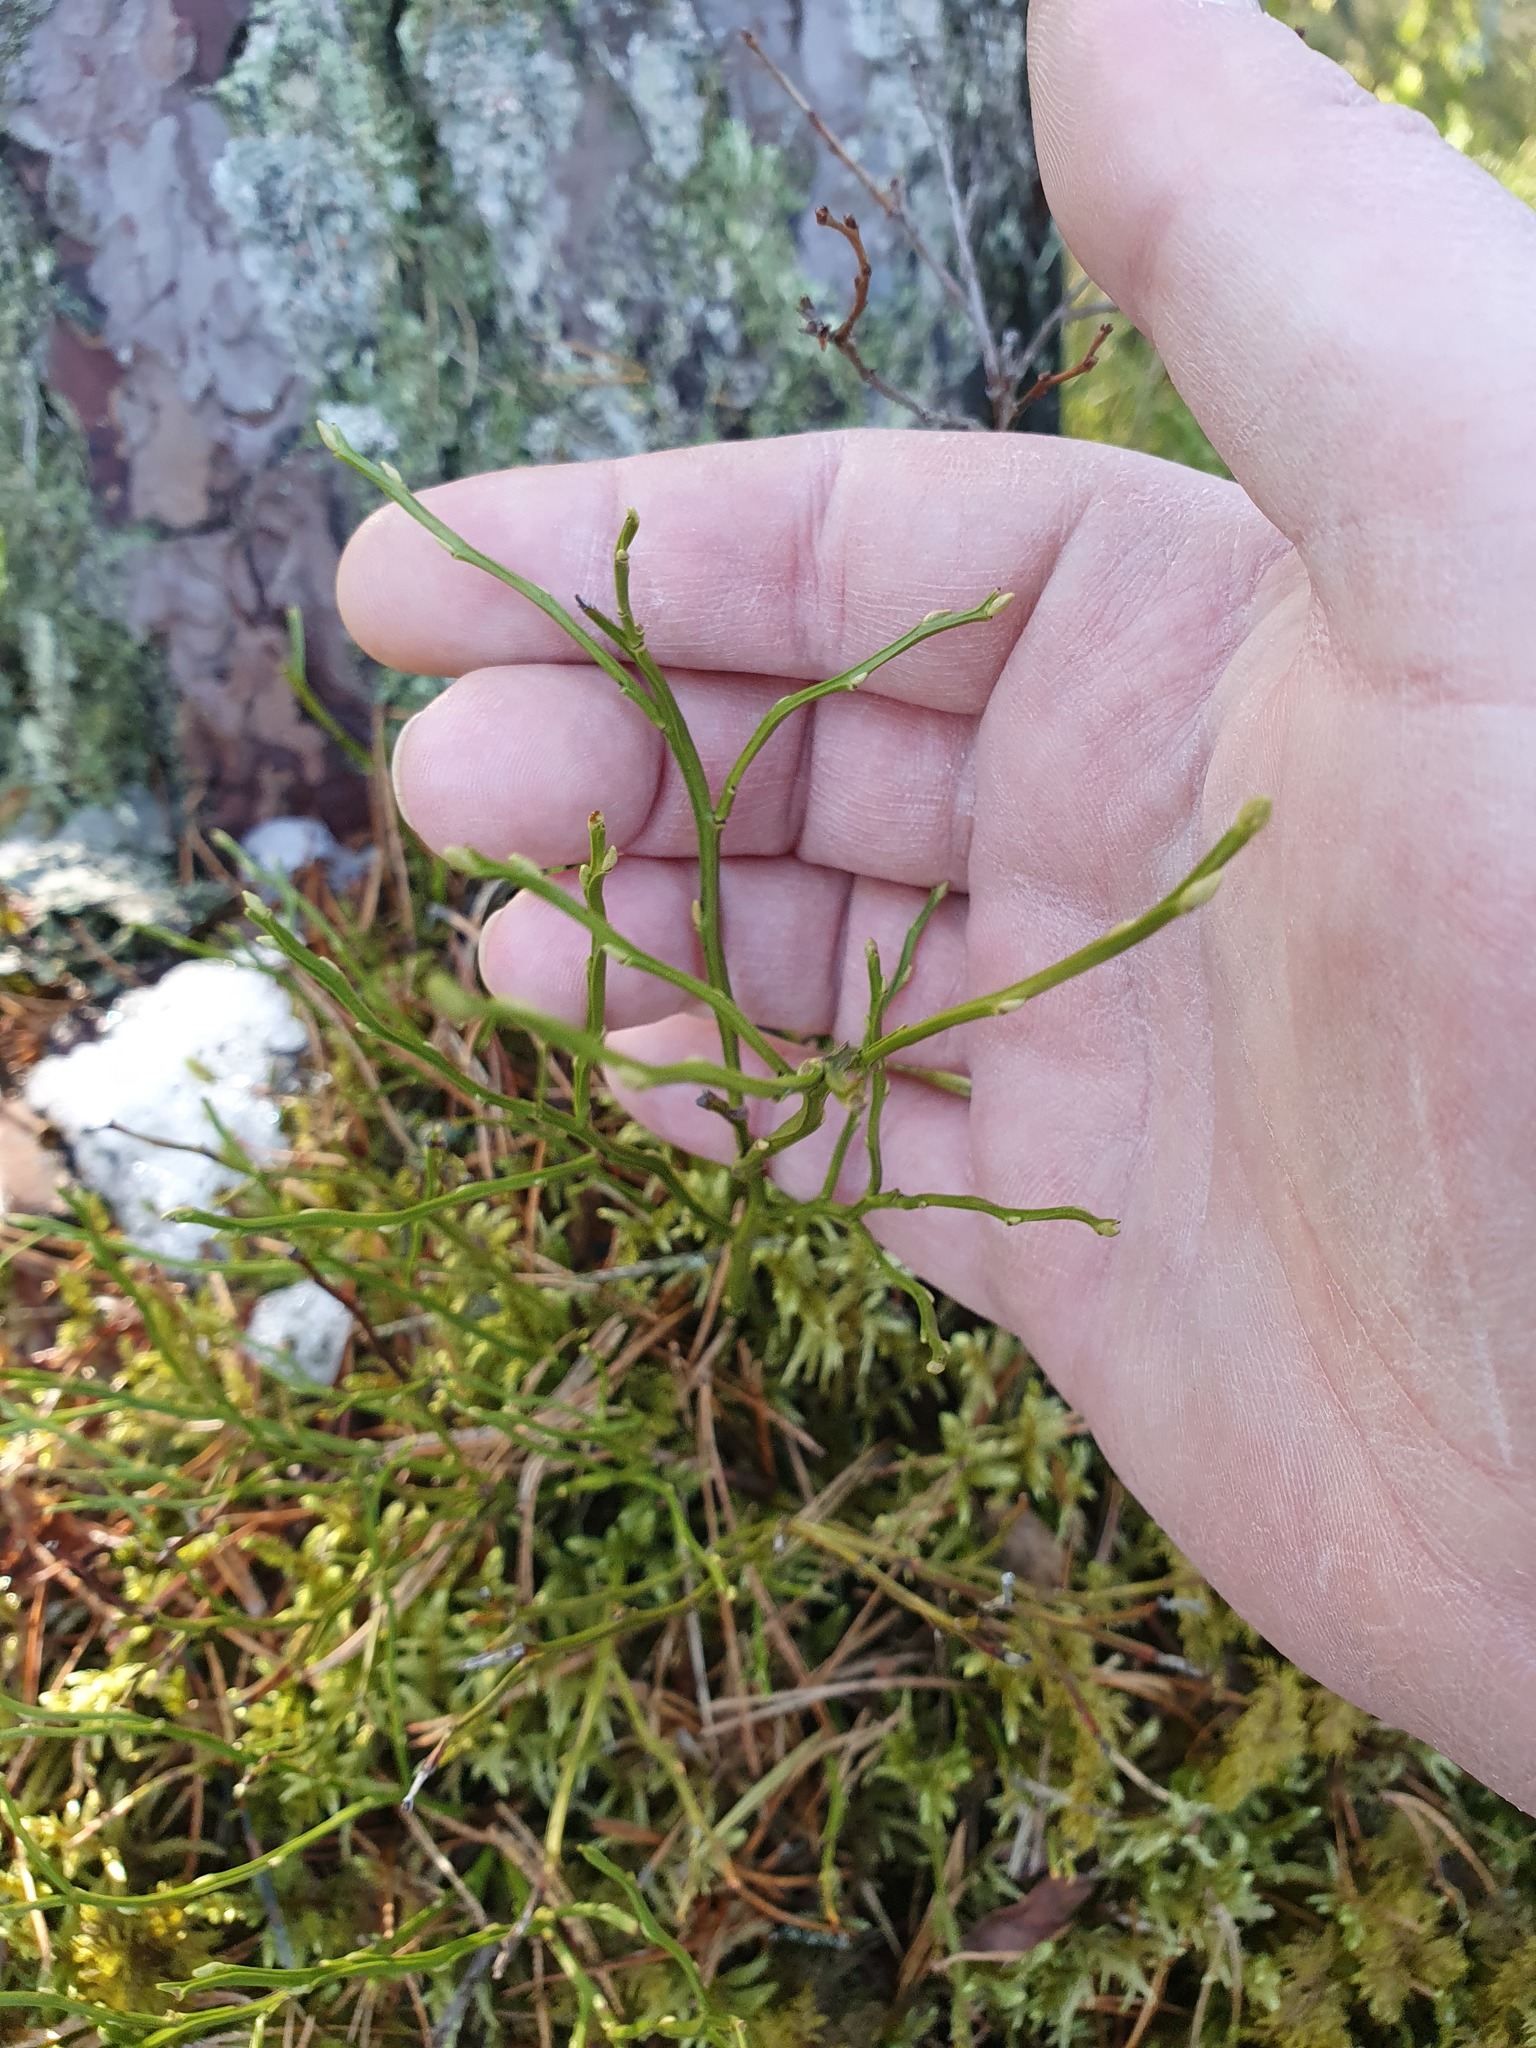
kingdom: Plantae
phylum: Tracheophyta
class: Magnoliopsida
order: Ericales
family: Ericaceae
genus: Vaccinium
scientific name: Vaccinium myrtillus
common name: Bilberry
